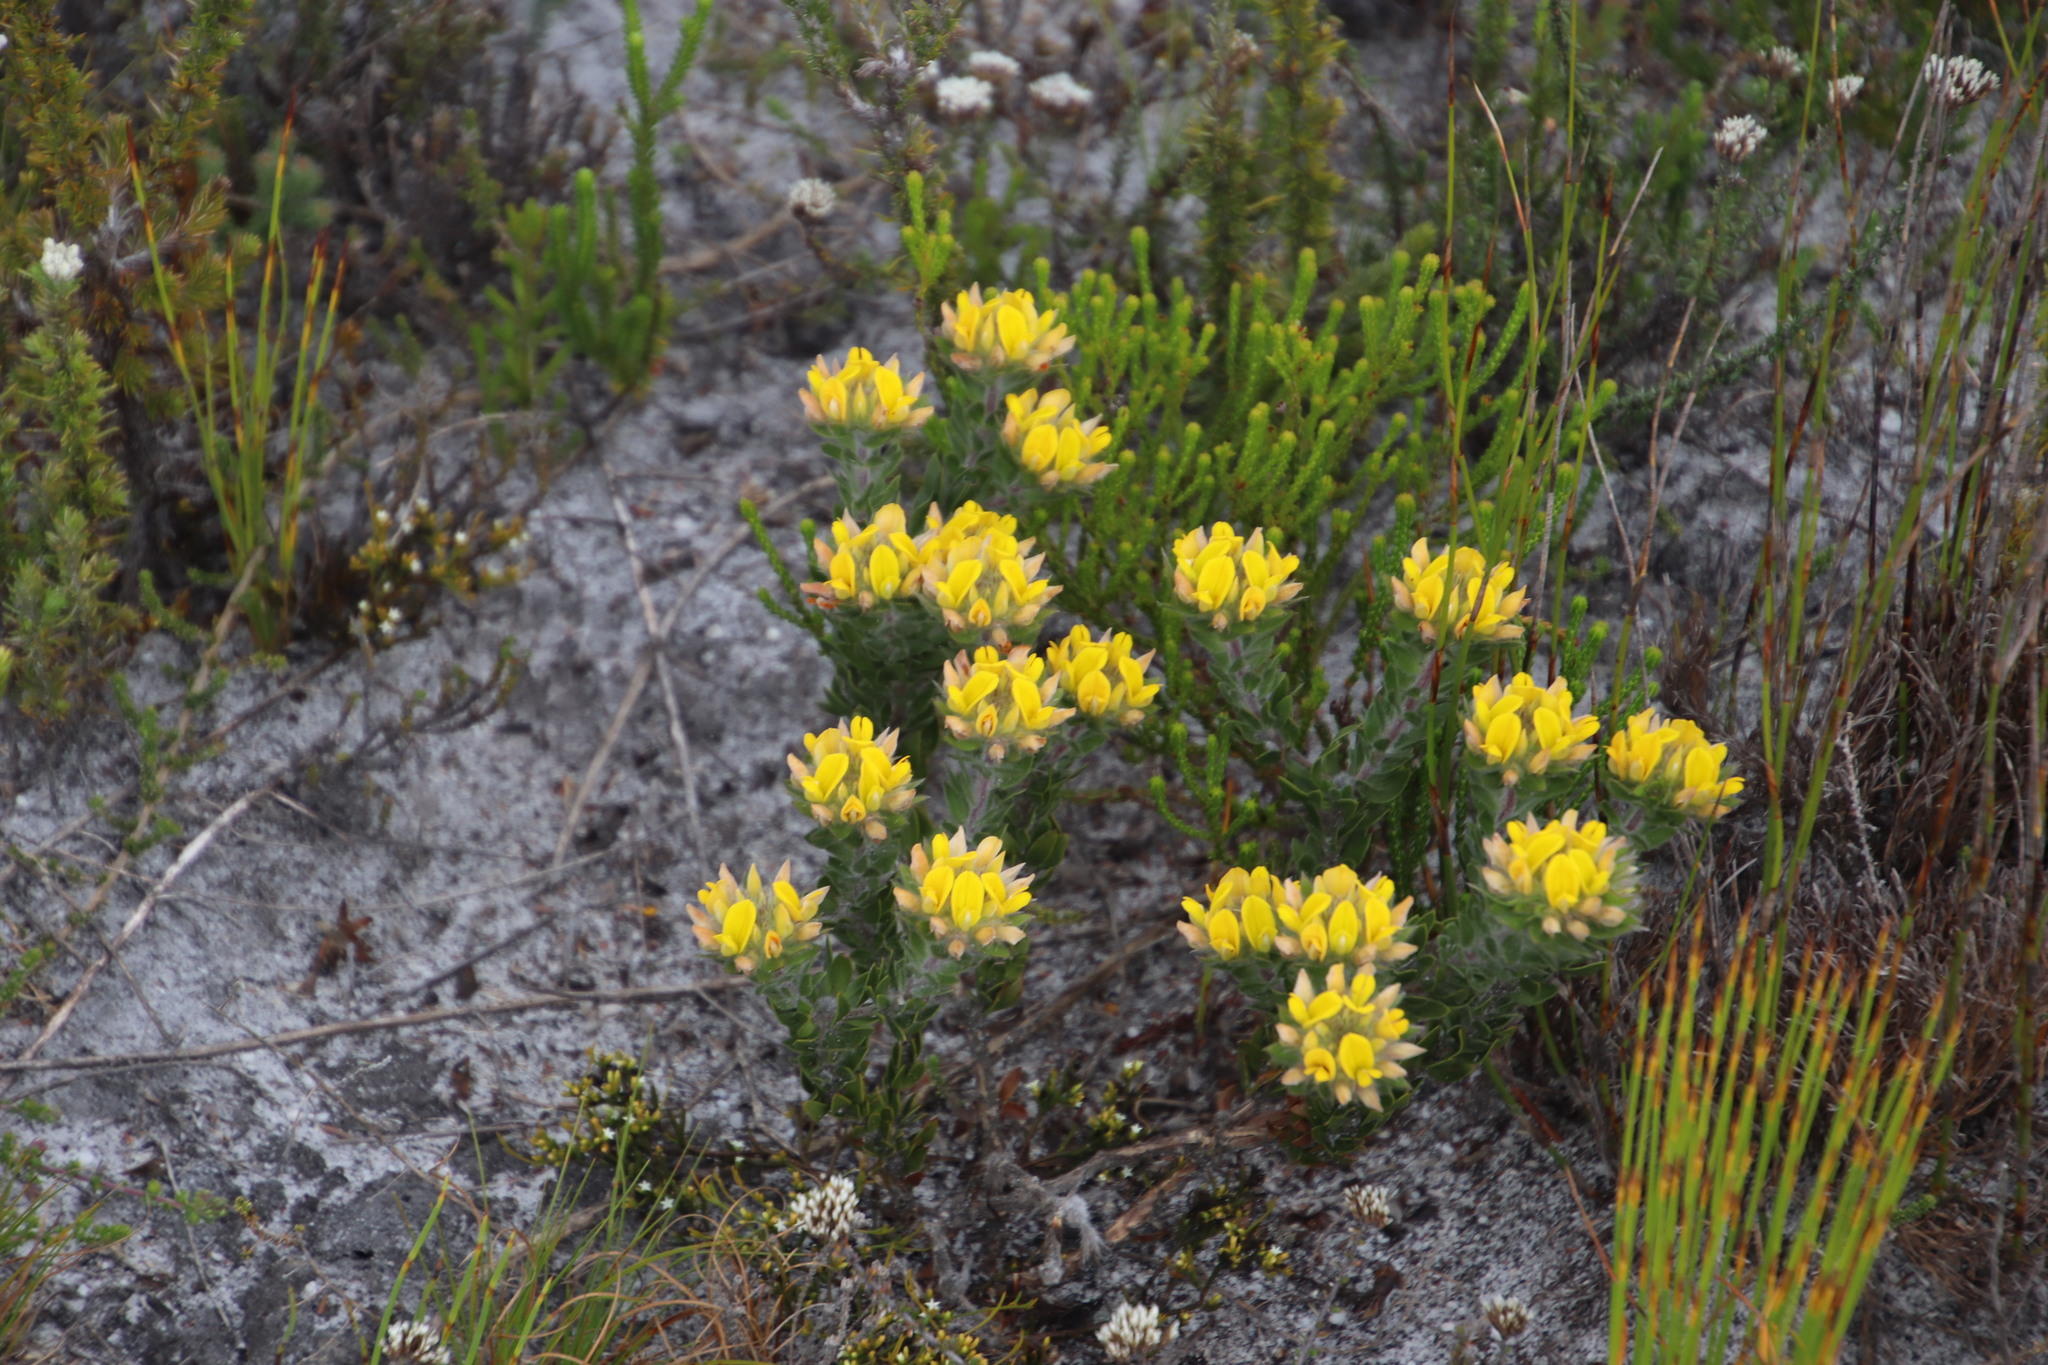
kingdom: Plantae
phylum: Tracheophyta
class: Magnoliopsida
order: Fabales
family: Fabaceae
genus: Aspalathus
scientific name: Aspalathus aspalathoides
